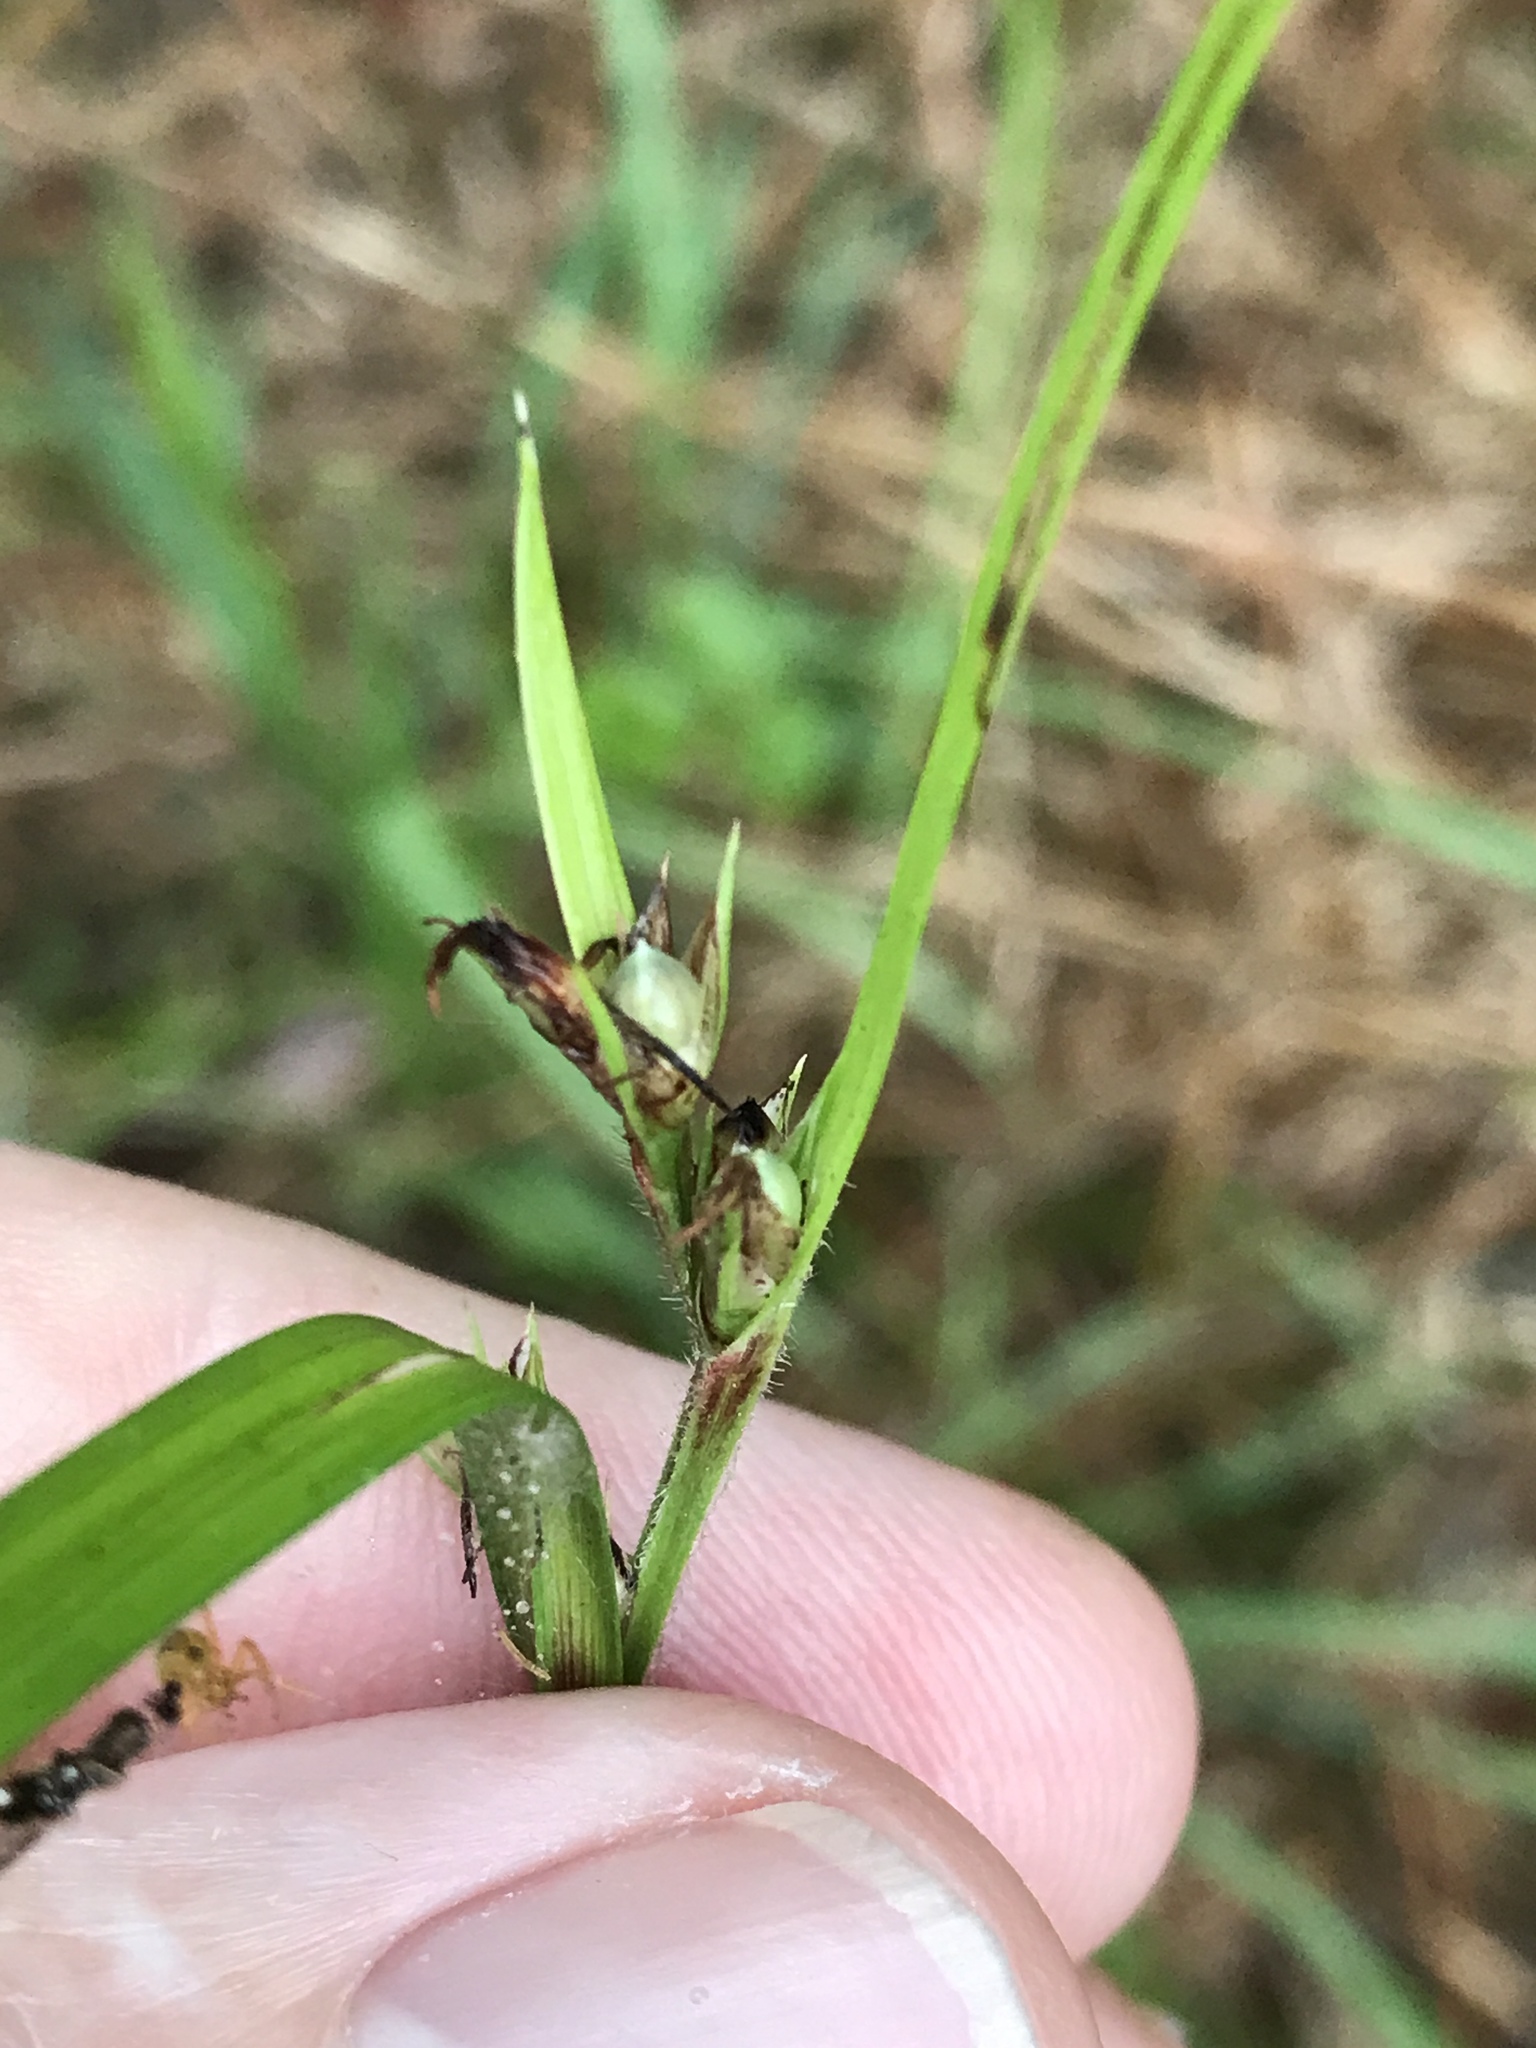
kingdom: Plantae
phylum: Tracheophyta
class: Liliopsida
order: Poales
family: Cyperaceae
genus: Scleria
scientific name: Scleria oligantha
